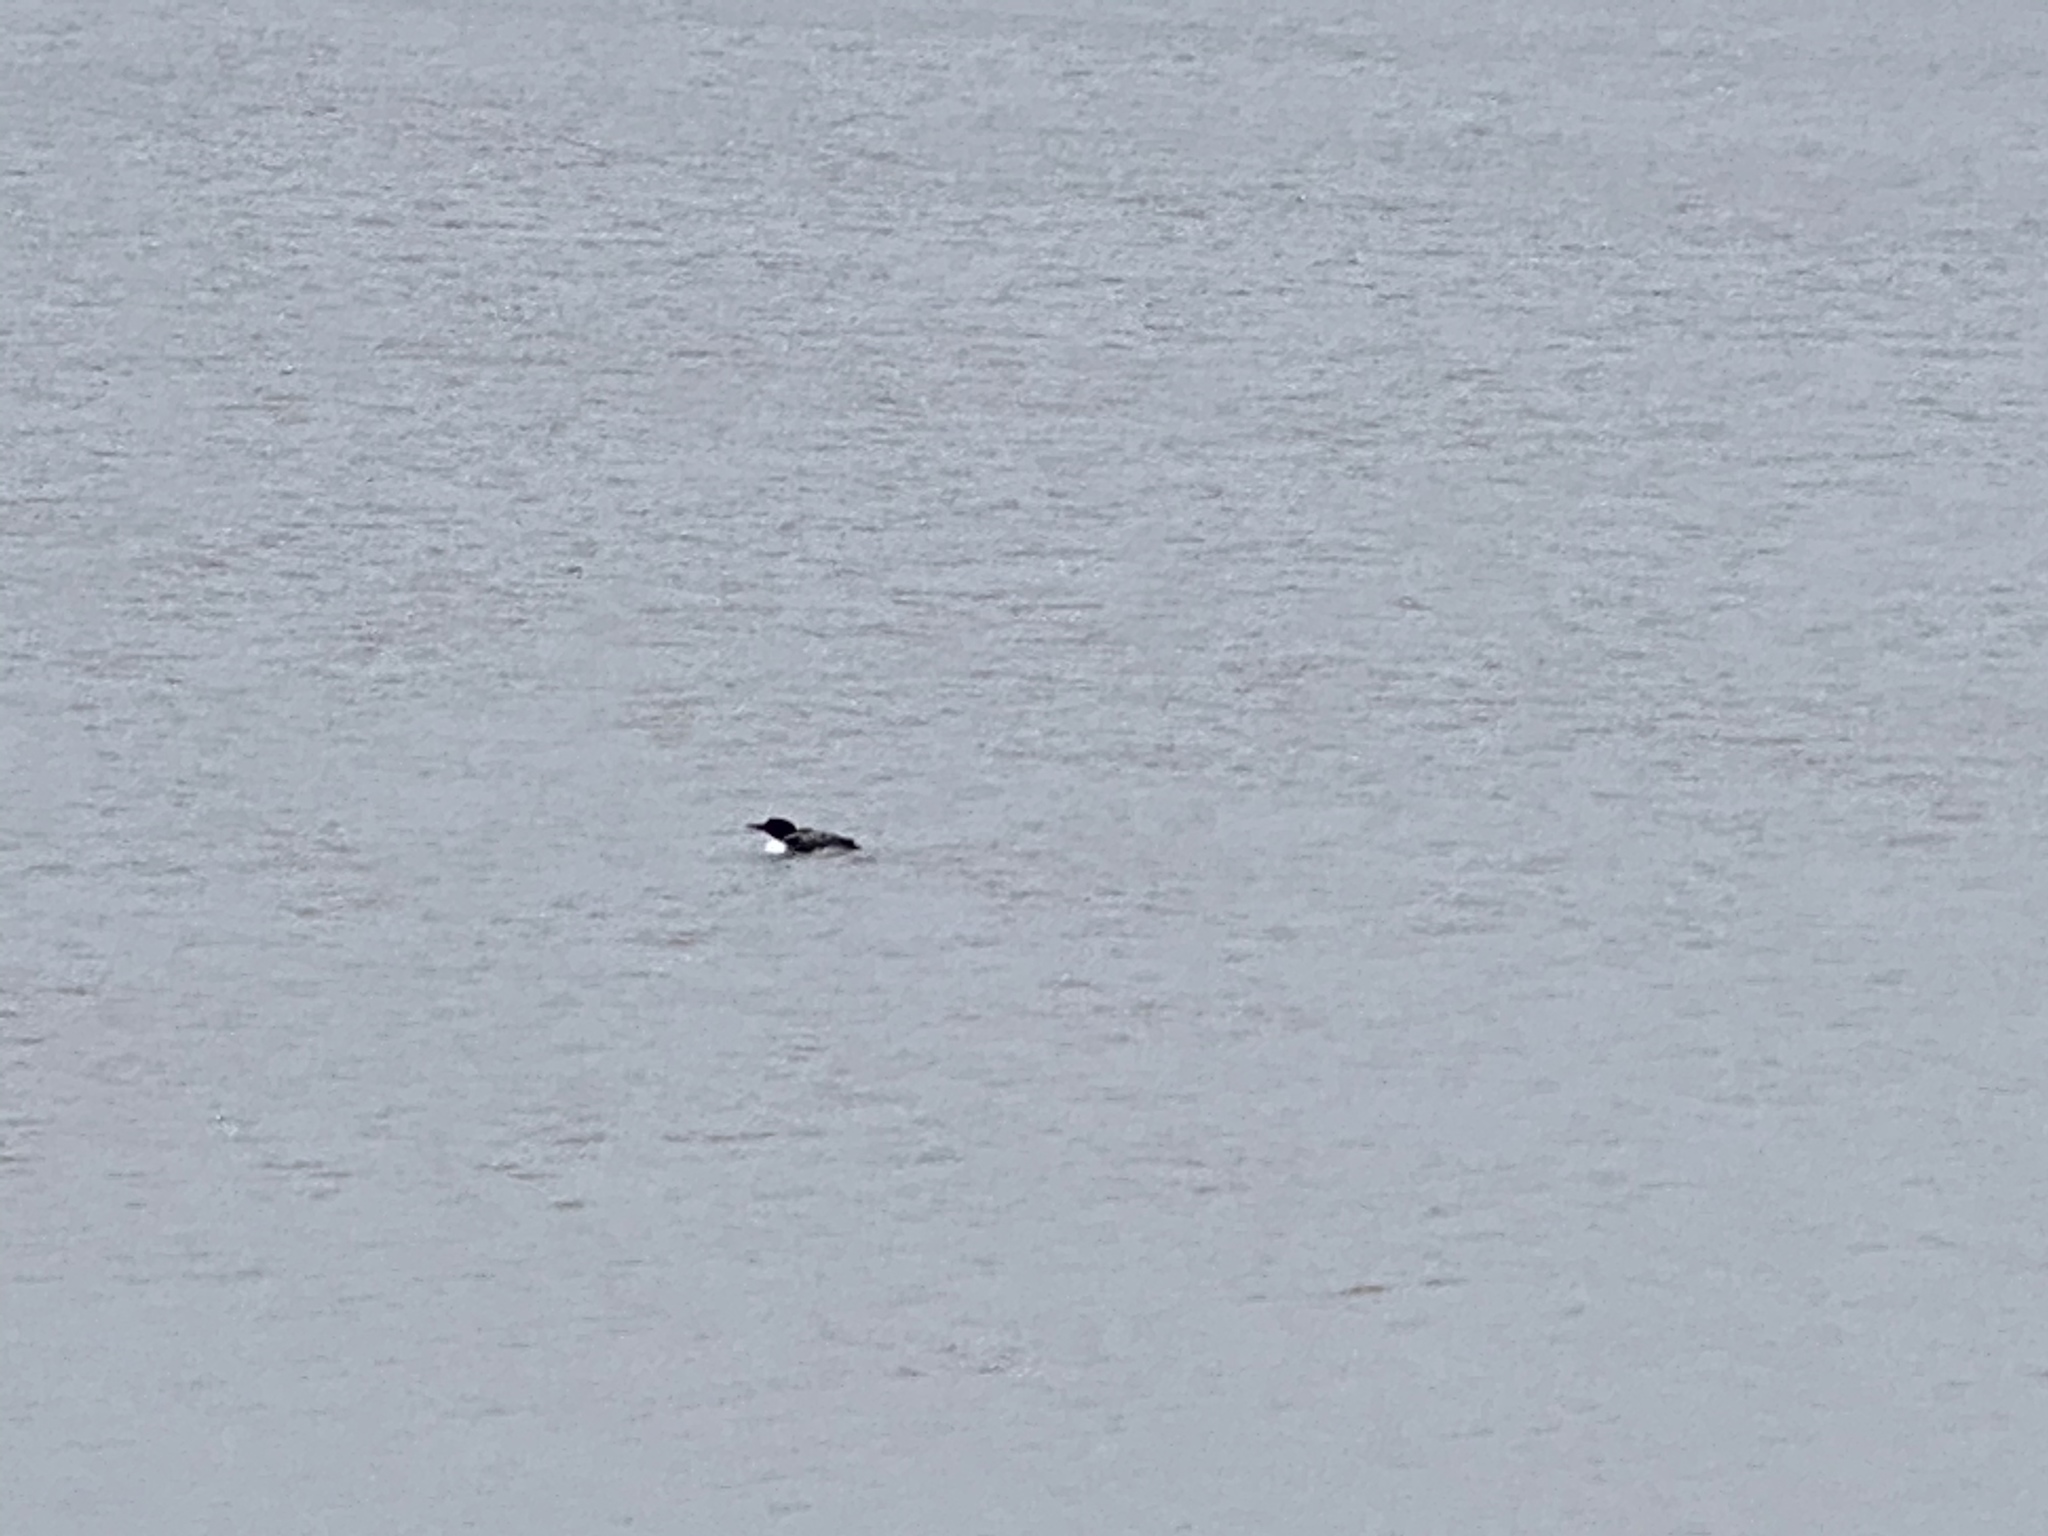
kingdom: Animalia
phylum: Chordata
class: Aves
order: Gaviiformes
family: Gaviidae
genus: Gavia
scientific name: Gavia immer
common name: Common loon
